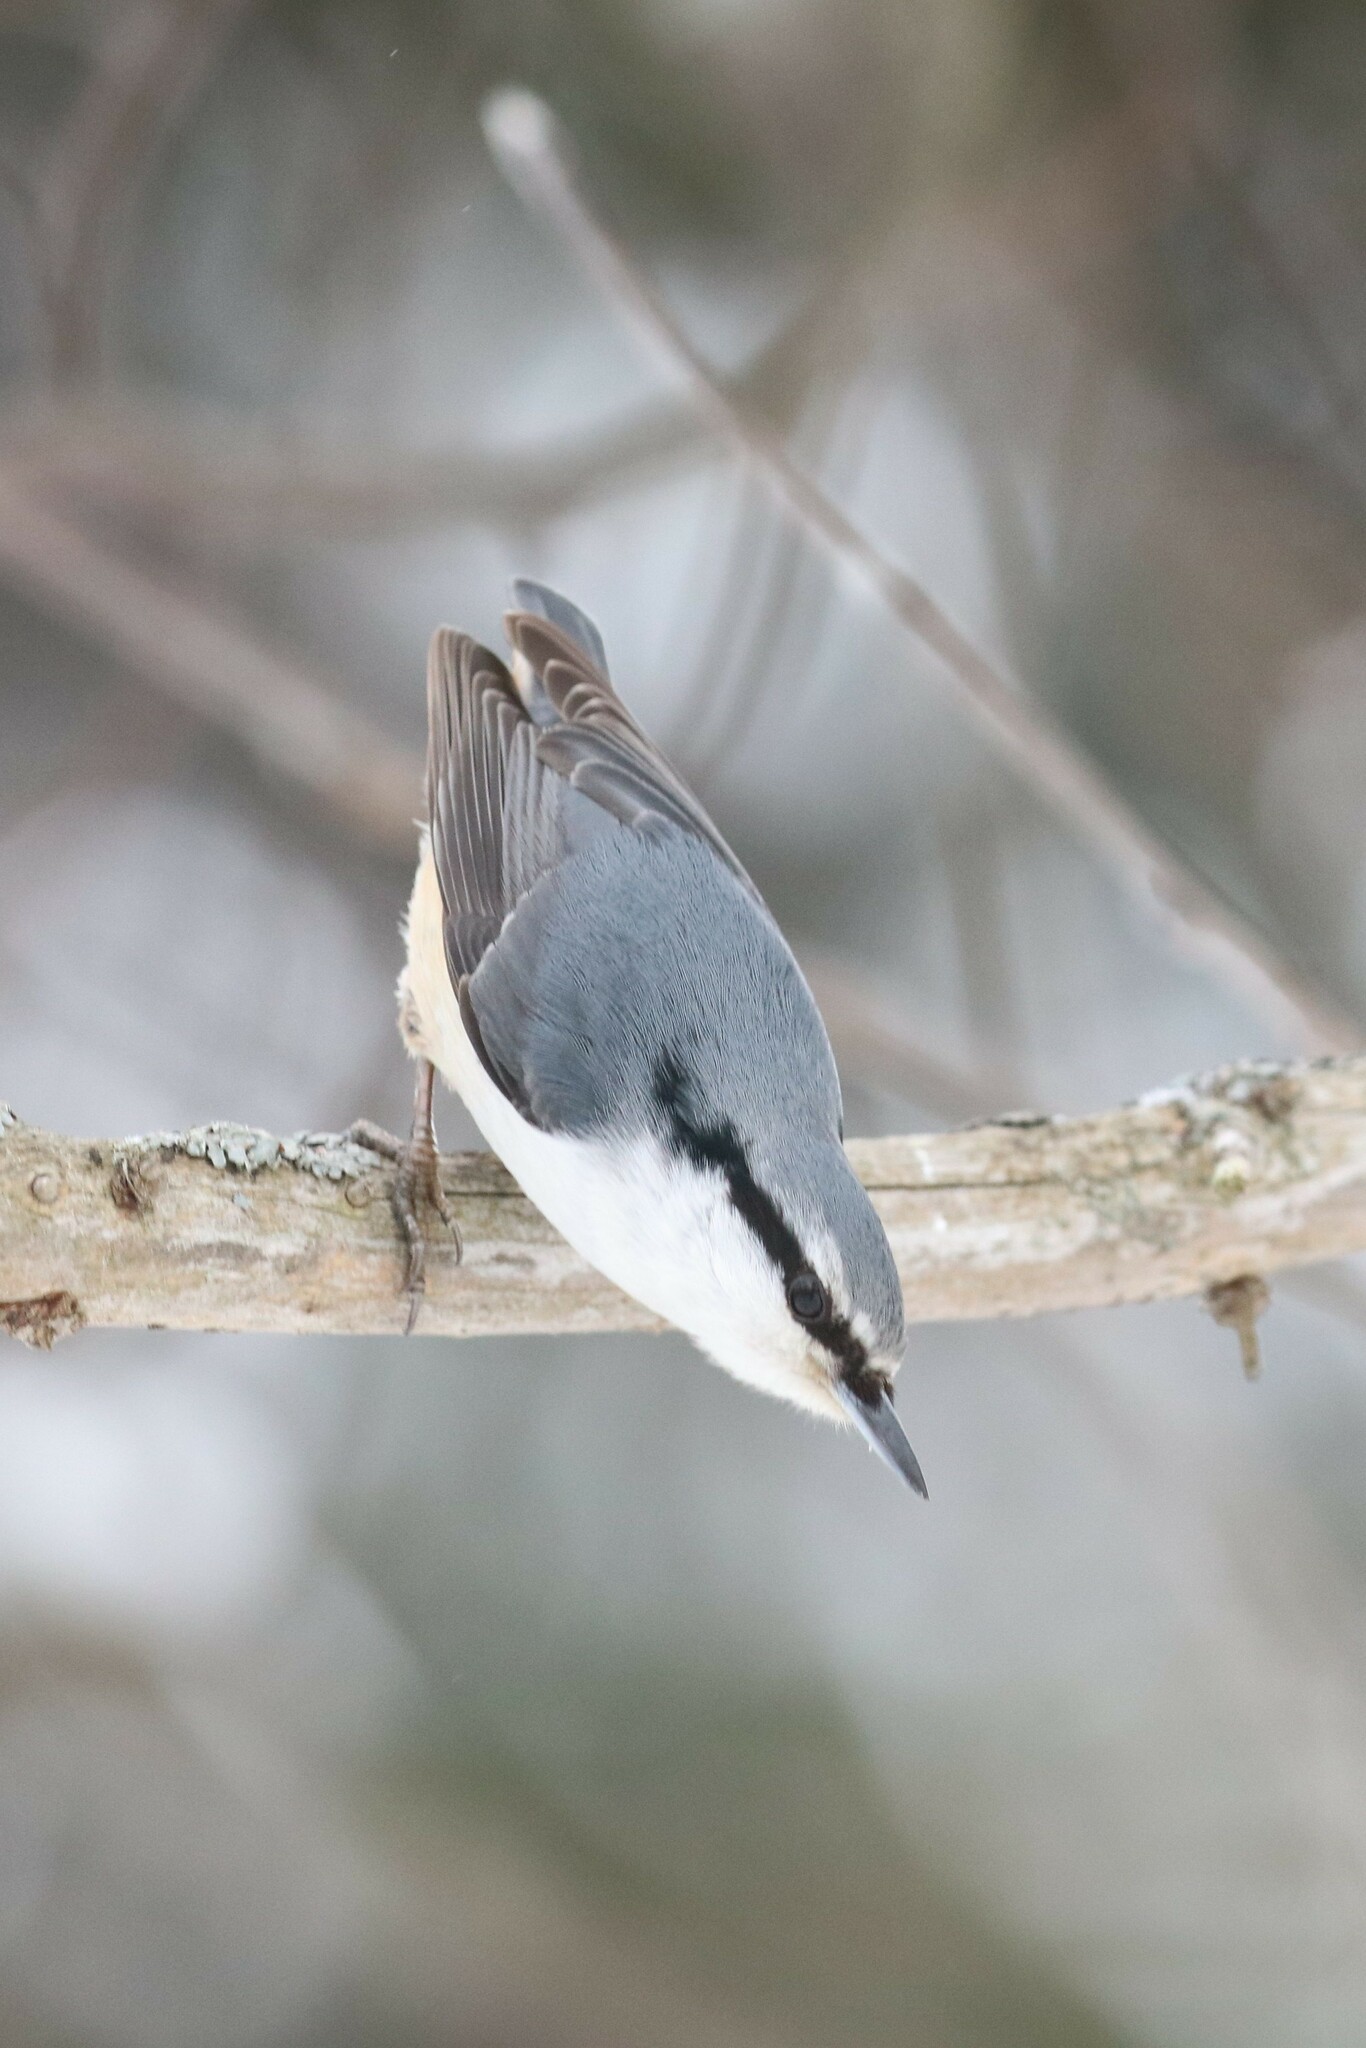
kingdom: Animalia
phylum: Chordata
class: Aves
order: Passeriformes
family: Sittidae
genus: Sitta
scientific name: Sitta europaea
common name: Eurasian nuthatch
